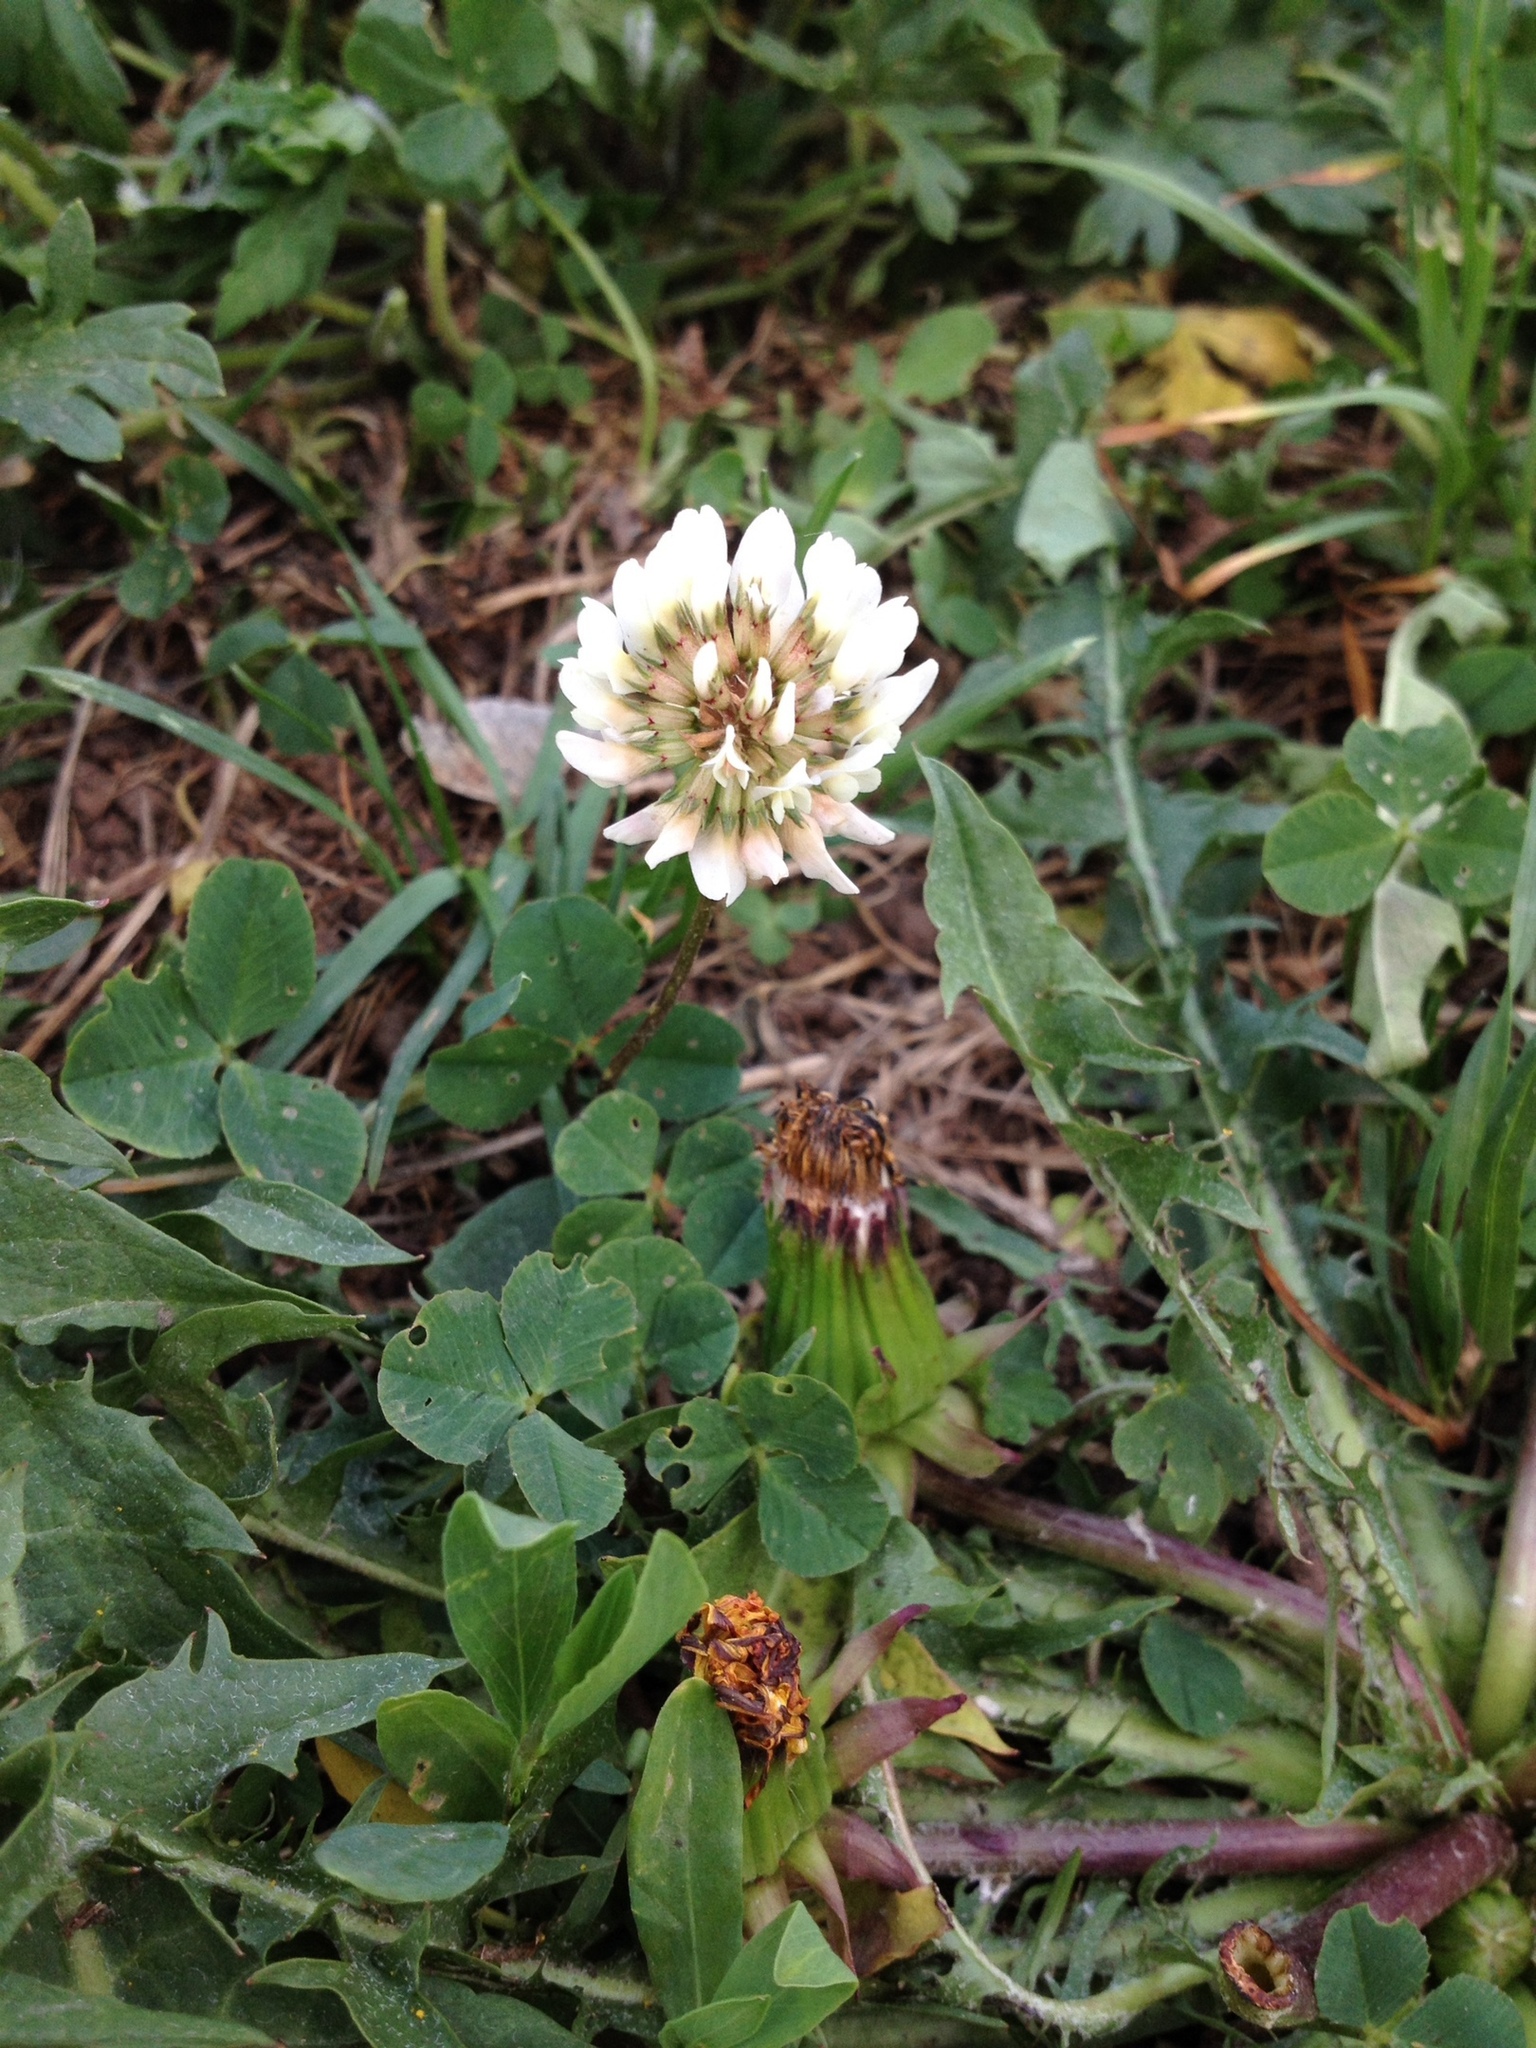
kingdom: Plantae
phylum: Tracheophyta
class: Magnoliopsida
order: Fabales
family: Fabaceae
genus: Trifolium
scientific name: Trifolium repens
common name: White clover
